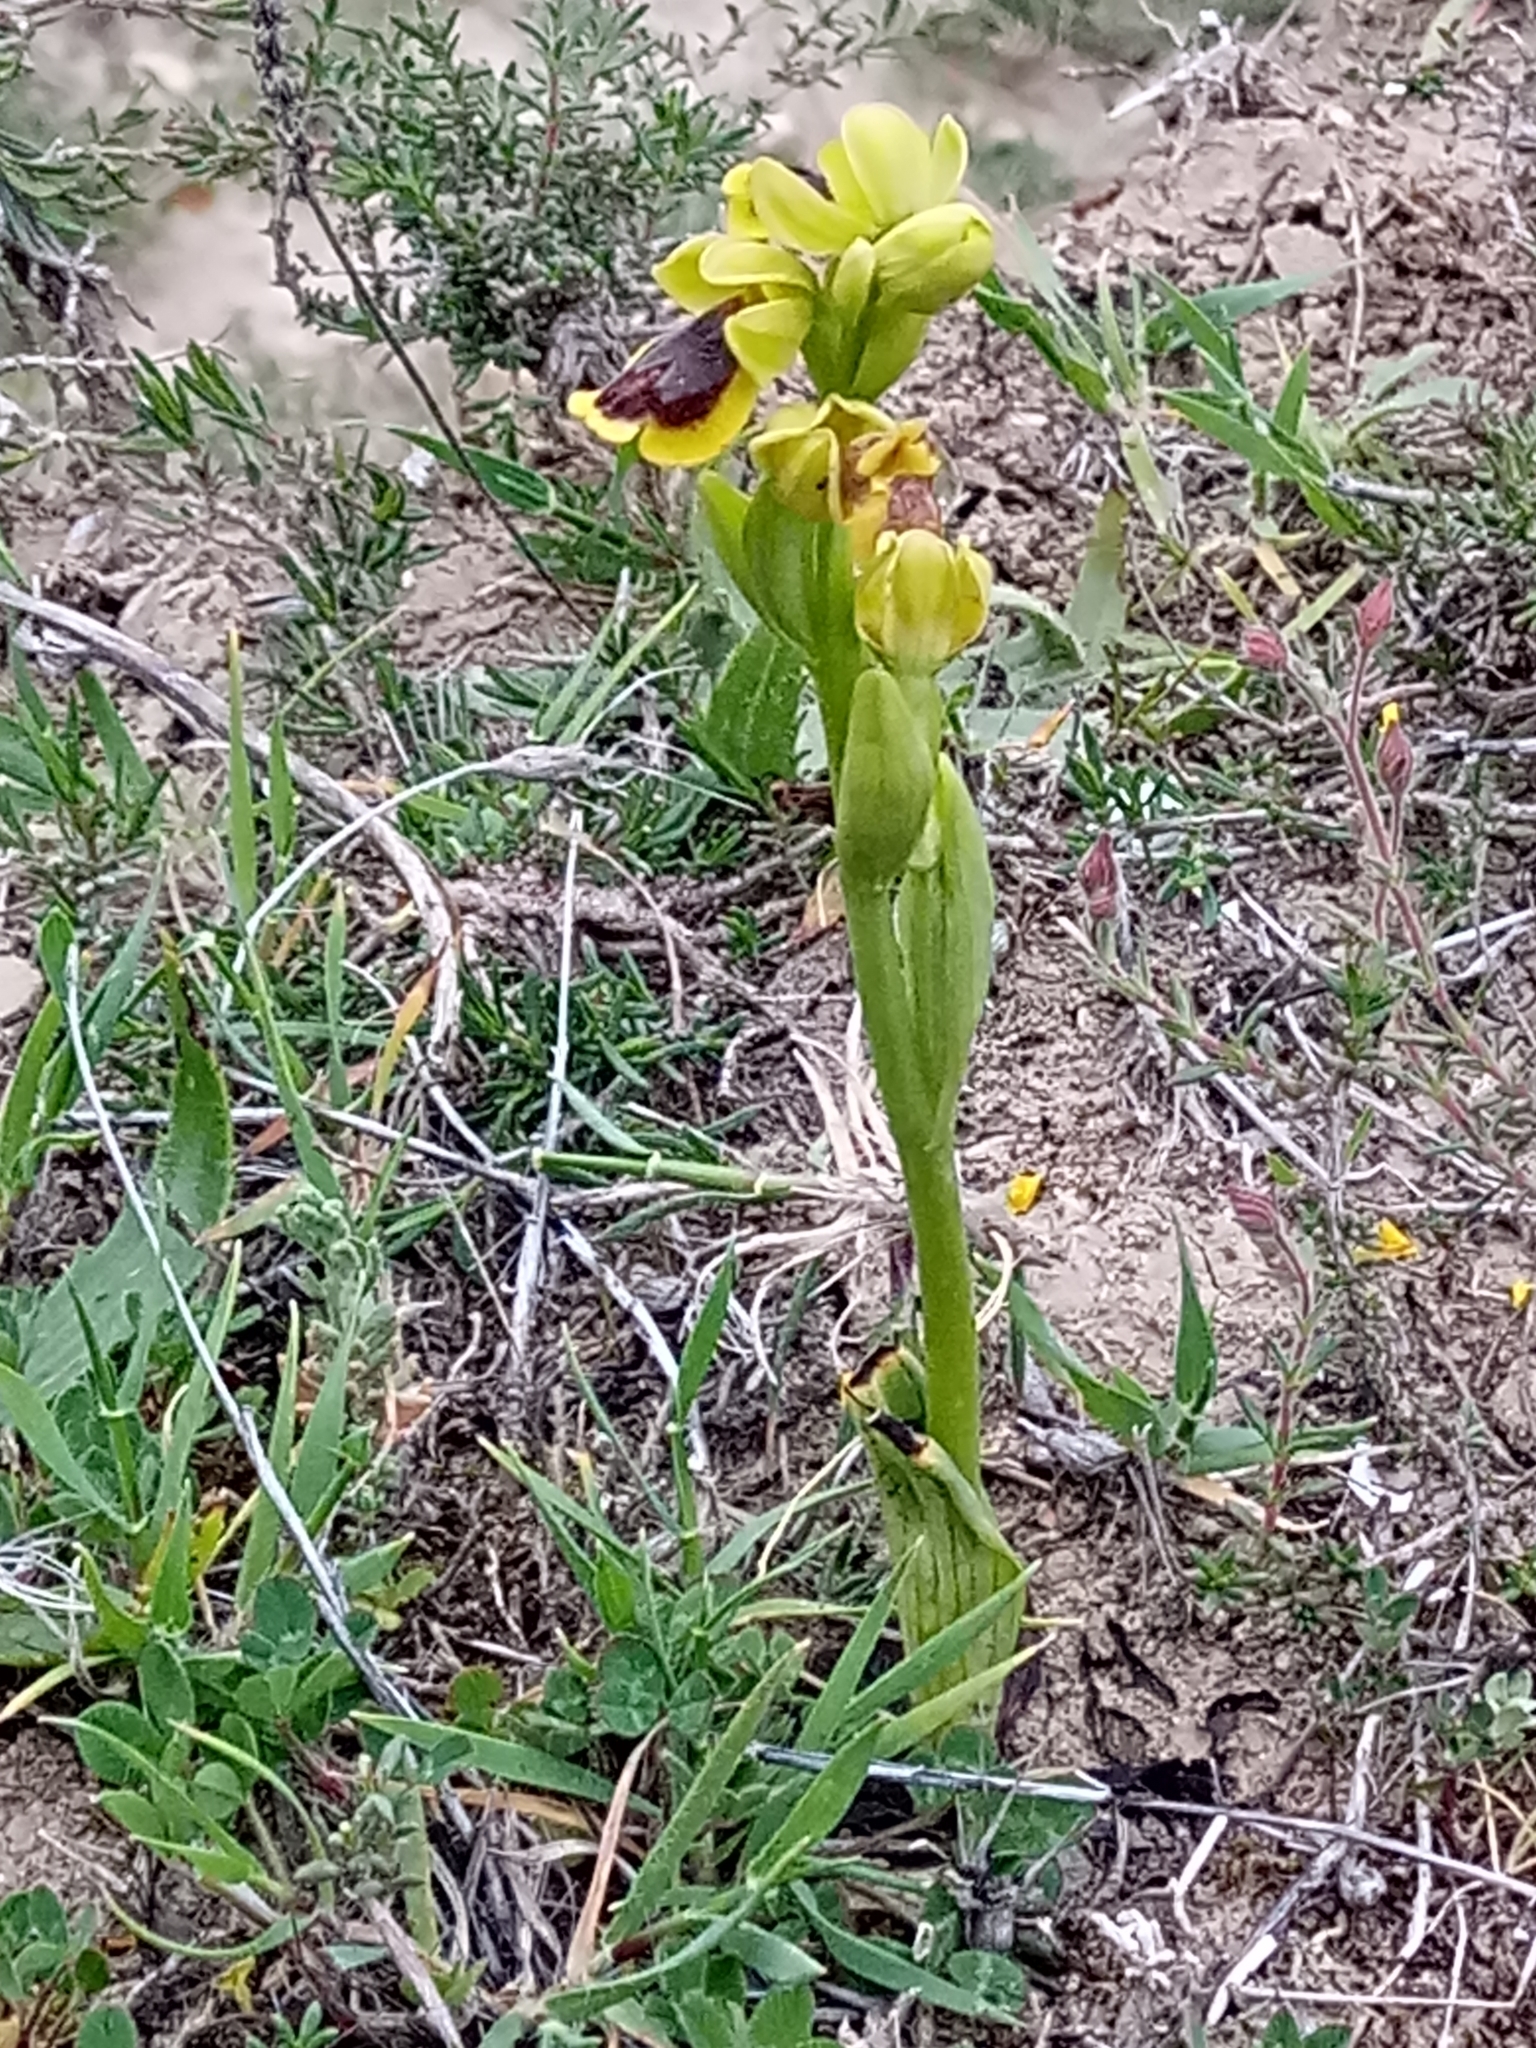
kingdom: Plantae
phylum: Tracheophyta
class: Liliopsida
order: Asparagales
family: Orchidaceae
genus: Ophrys
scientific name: Ophrys lutea
